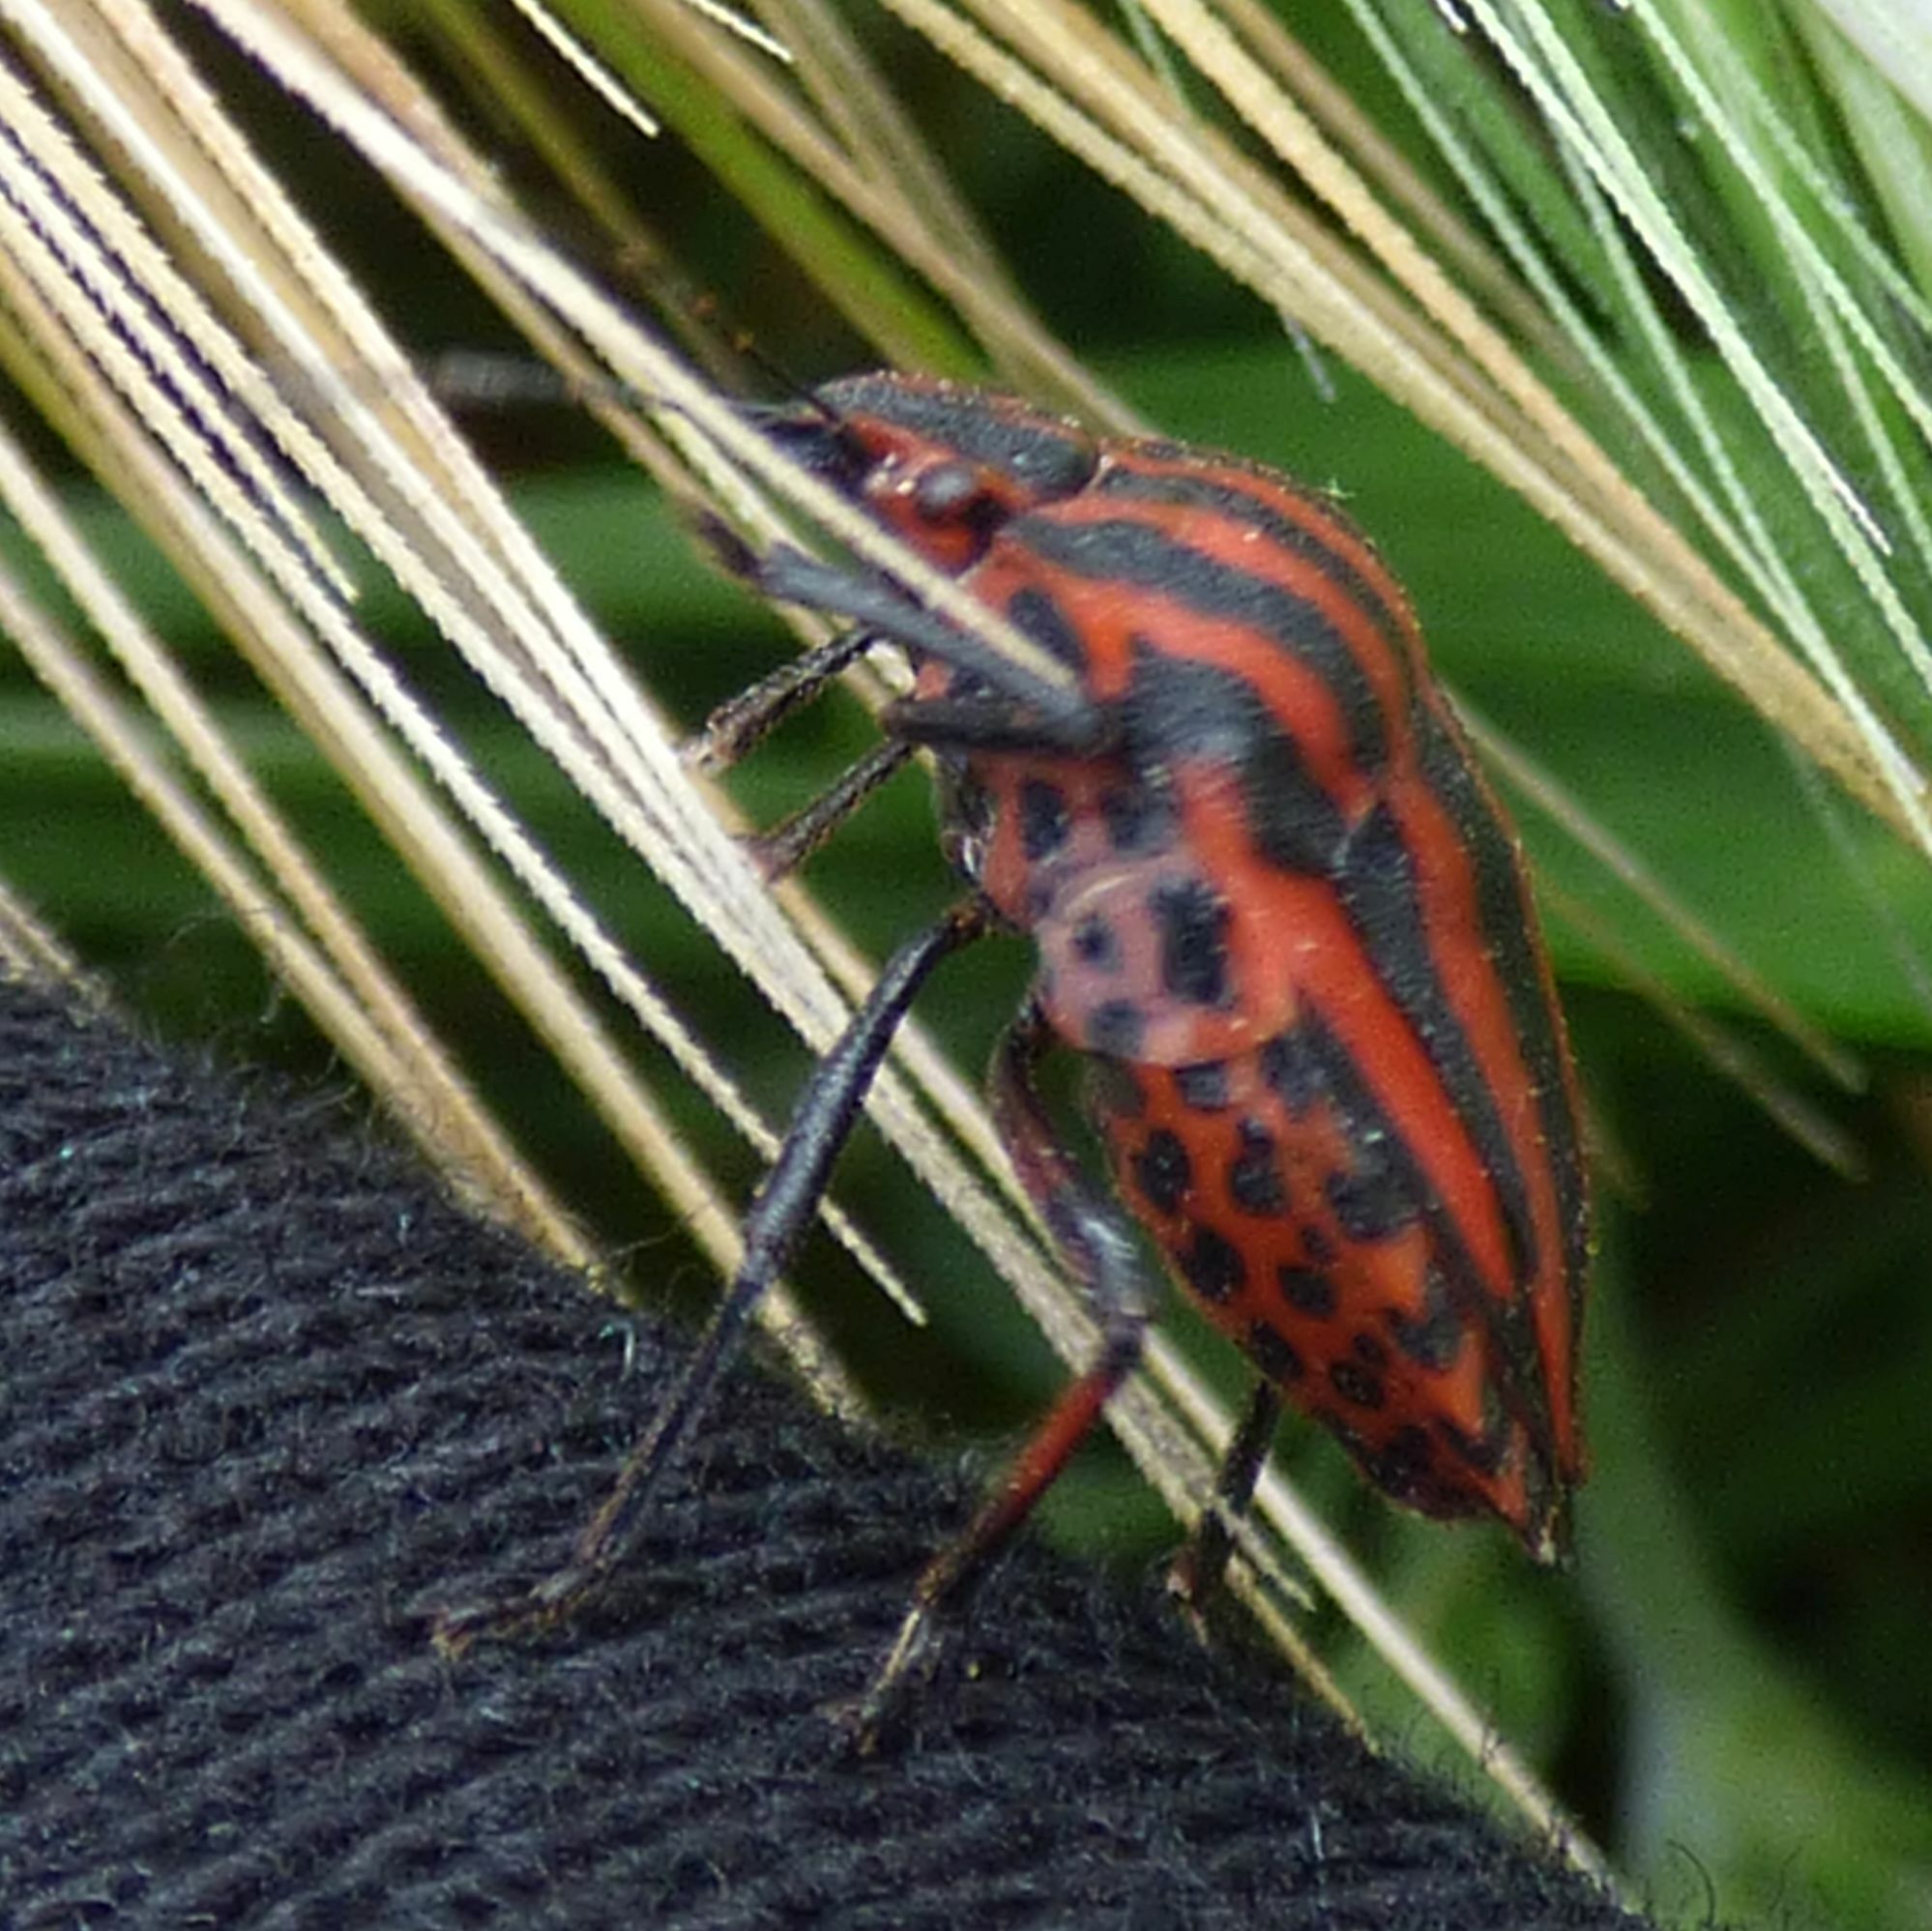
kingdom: Animalia
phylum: Arthropoda
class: Insecta
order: Hemiptera
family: Pentatomidae
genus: Graphosoma
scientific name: Graphosoma italicum
